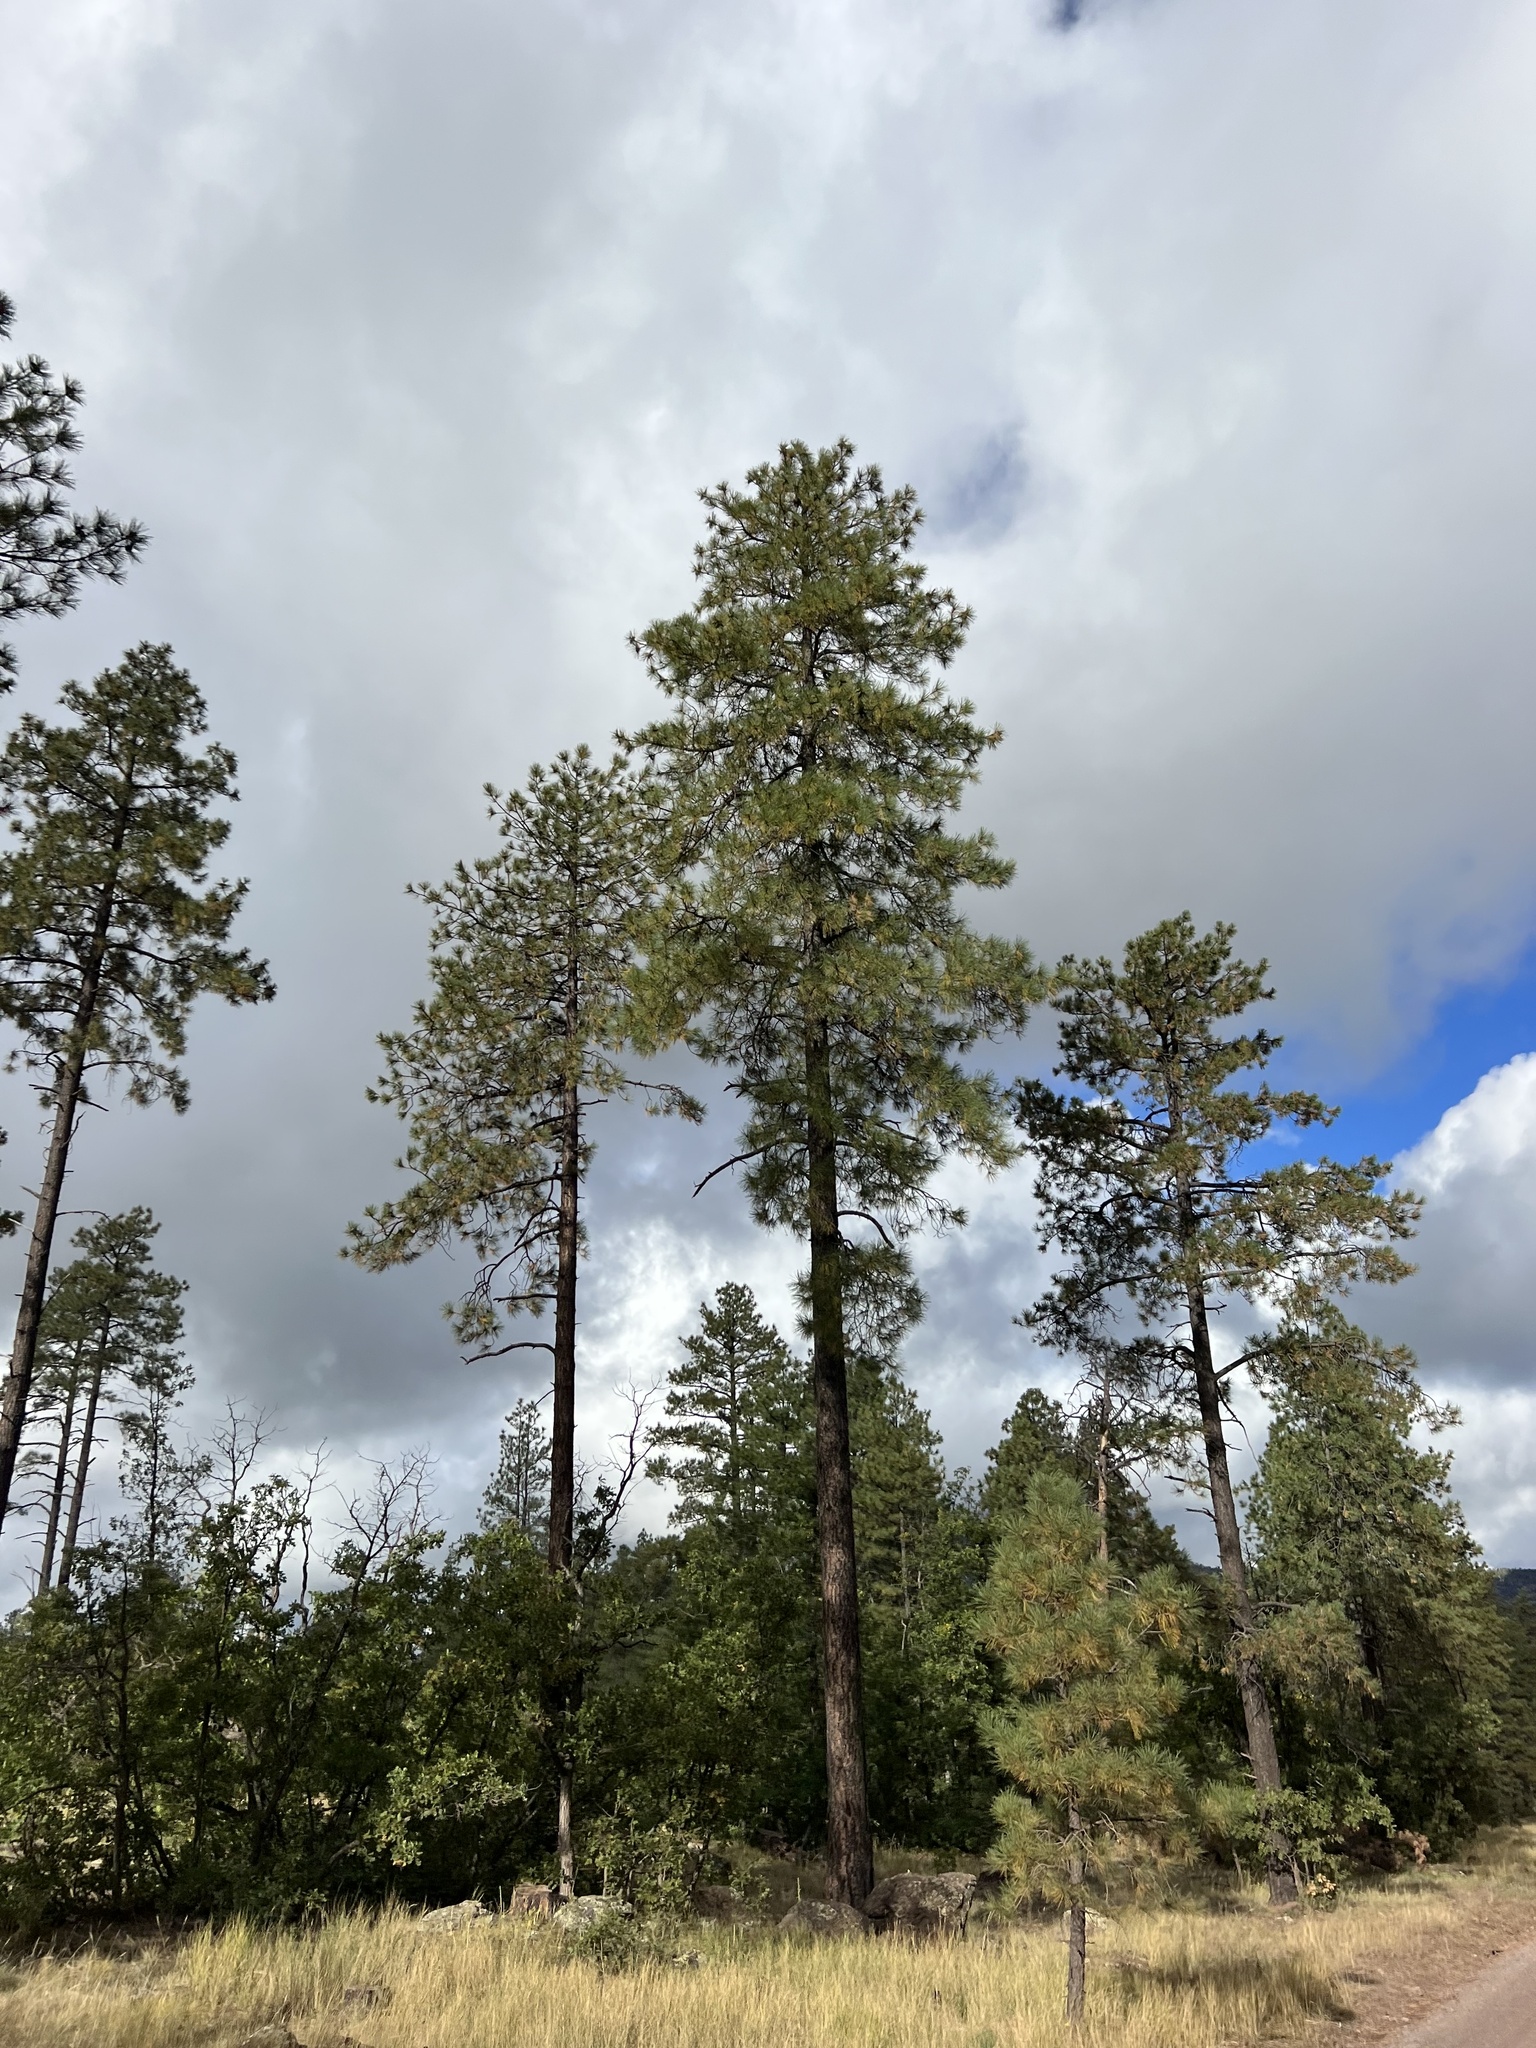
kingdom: Plantae
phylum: Tracheophyta
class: Pinopsida
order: Pinales
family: Pinaceae
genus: Pinus
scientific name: Pinus ponderosa
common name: Western yellow-pine
